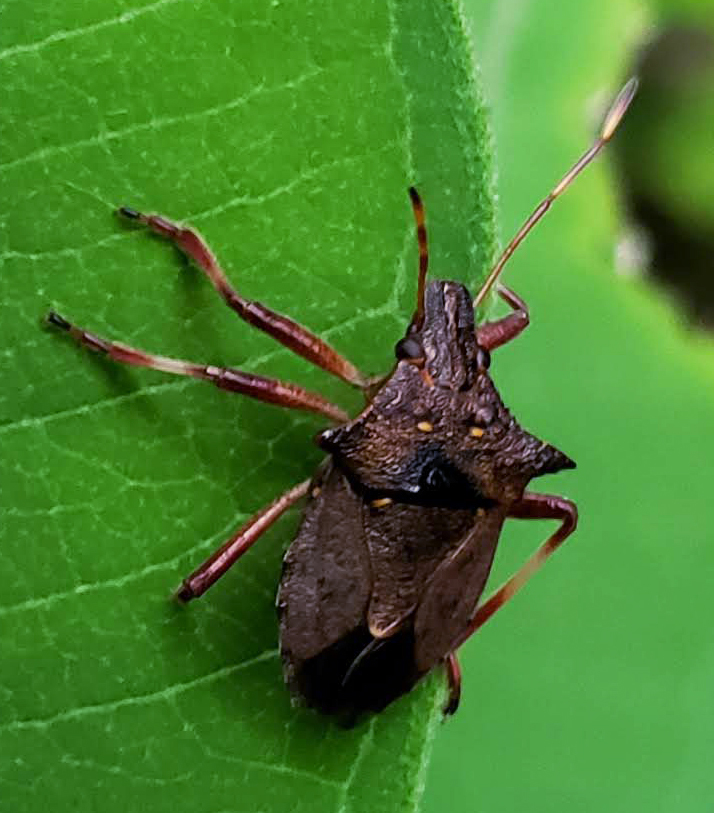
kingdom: Animalia
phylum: Arthropoda
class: Insecta
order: Hemiptera
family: Pentatomidae
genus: Picromerus
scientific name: Picromerus bidens
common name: Spiked shieldbug
